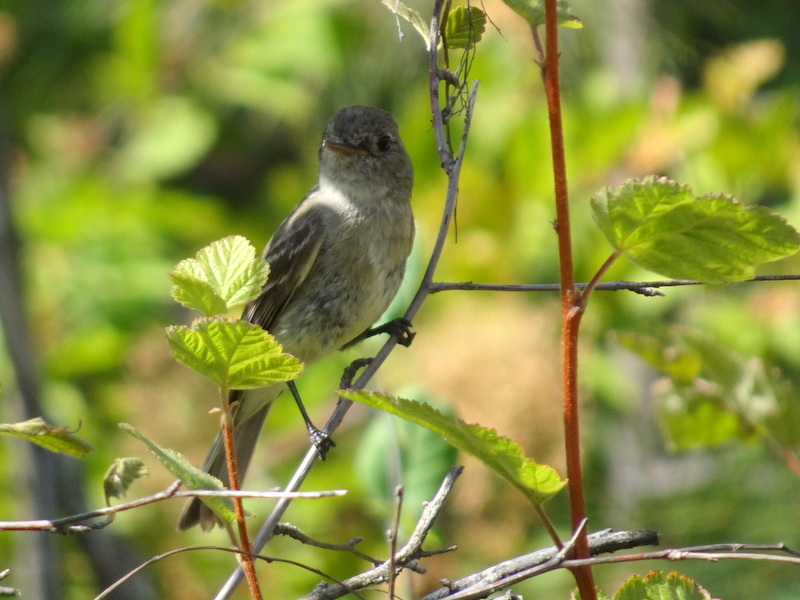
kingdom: Animalia
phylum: Chordata
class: Aves
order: Passeriformes
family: Tyrannidae
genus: Empidonax
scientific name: Empidonax oberholseri
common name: Dusky flycatcher
